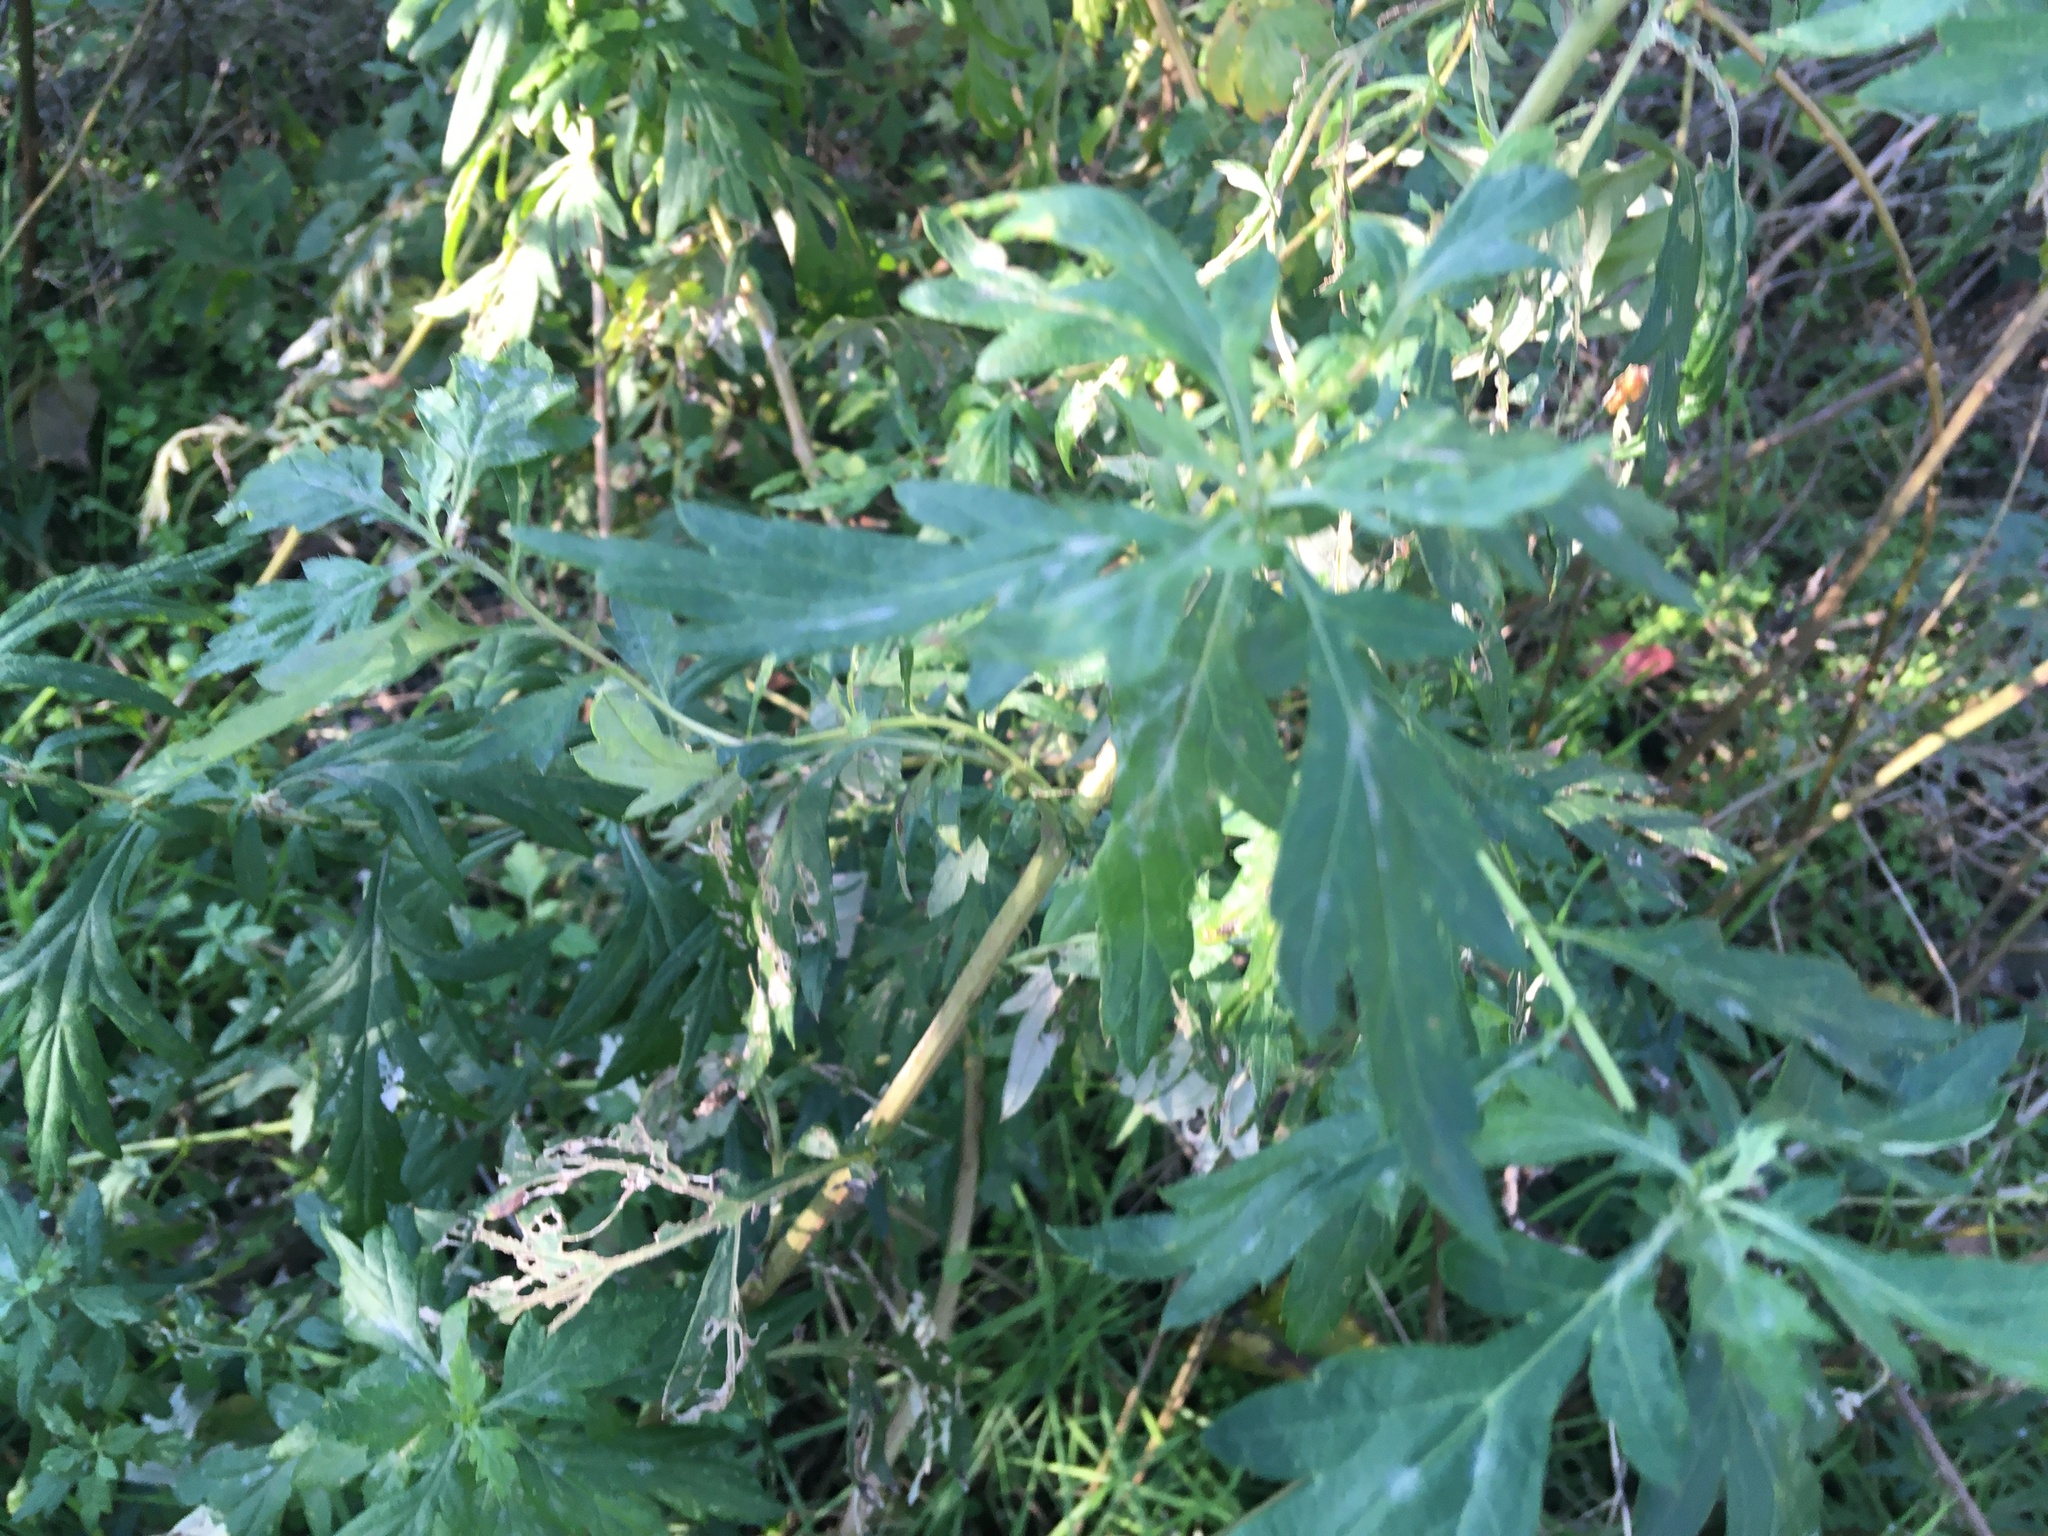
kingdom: Plantae
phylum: Tracheophyta
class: Magnoliopsida
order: Asterales
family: Asteraceae
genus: Artemisia
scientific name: Artemisia vulgaris
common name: Mugwort
